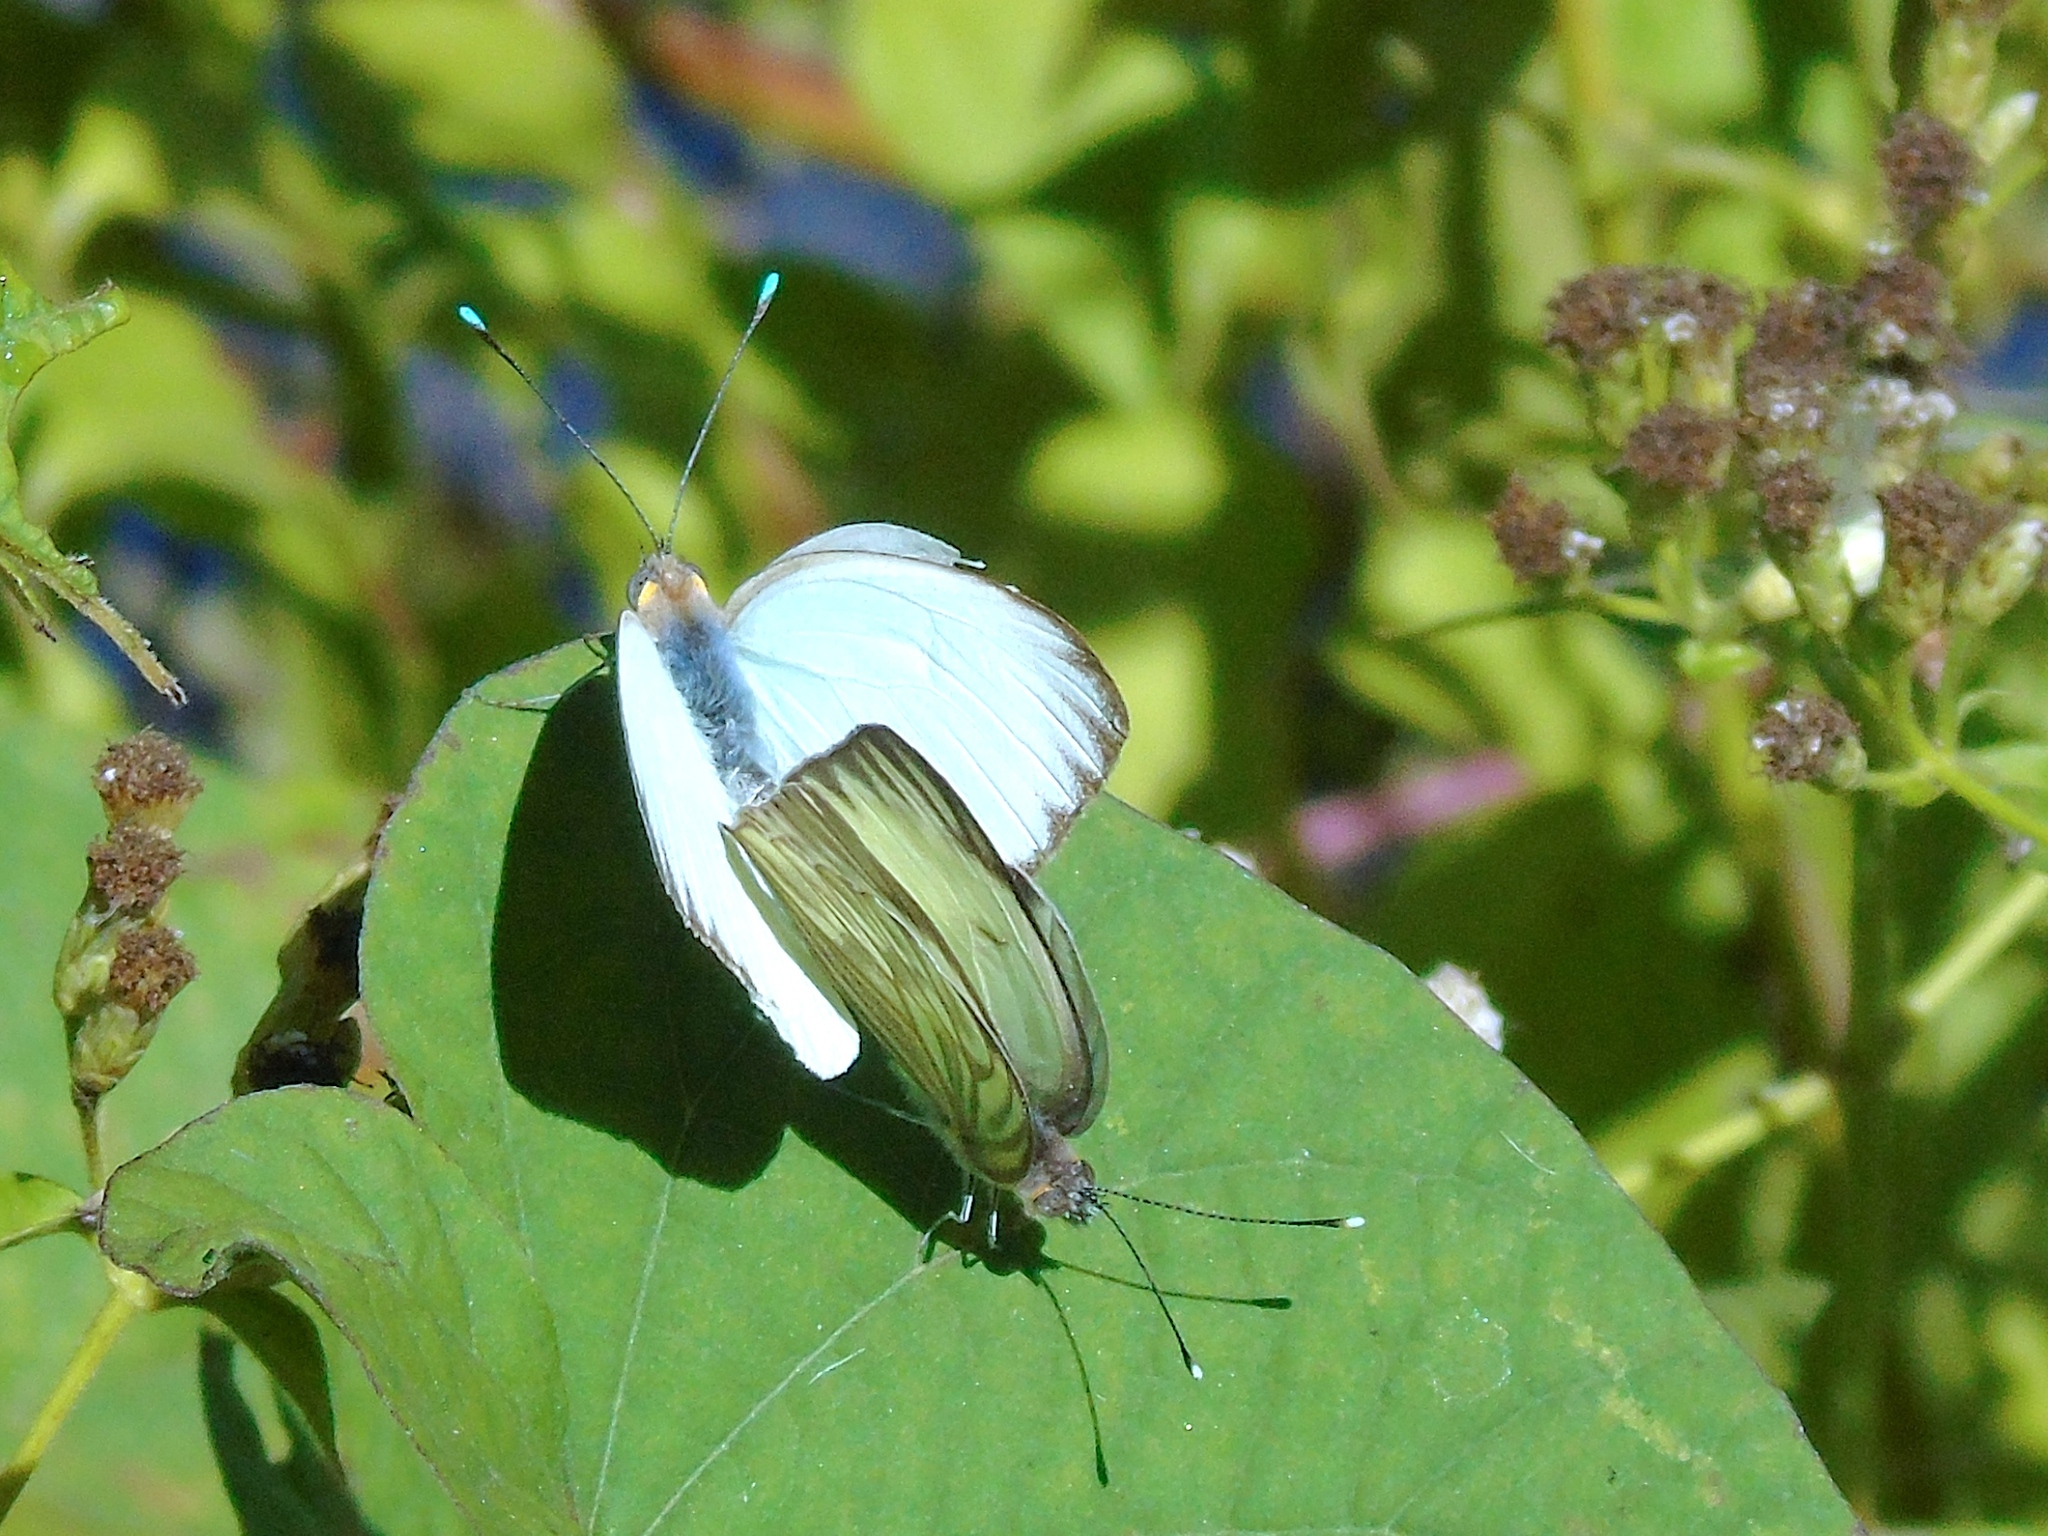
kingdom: Animalia
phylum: Arthropoda
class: Insecta
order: Lepidoptera
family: Pieridae
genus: Ascia
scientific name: Ascia monuste
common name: Great southern white
